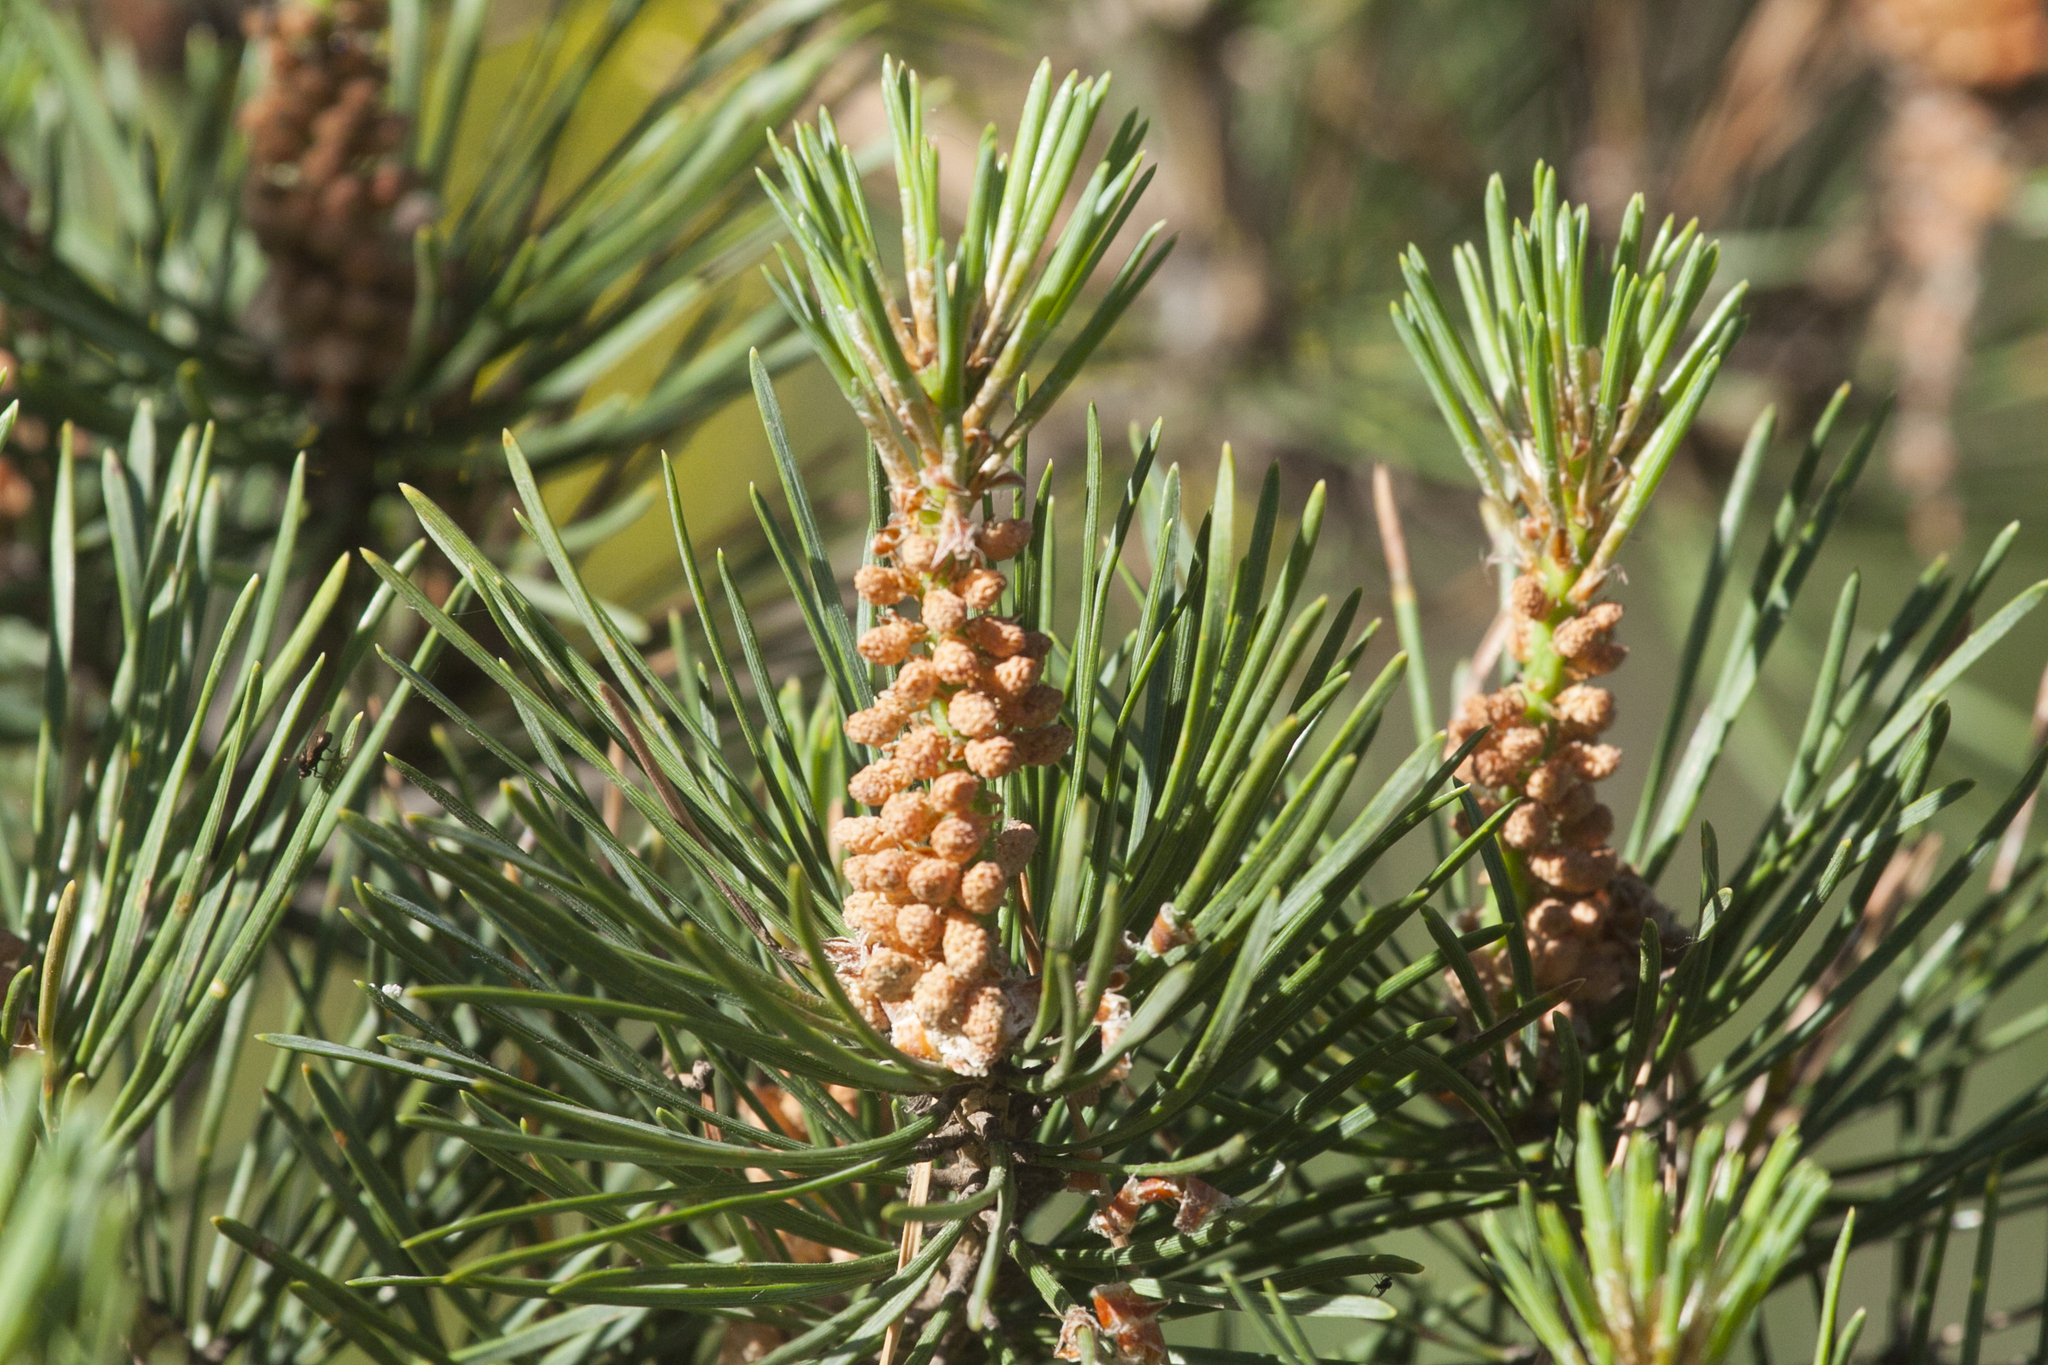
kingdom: Plantae
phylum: Tracheophyta
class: Pinopsida
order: Pinales
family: Pinaceae
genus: Pinus
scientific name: Pinus sylvestris
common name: Scots pine
